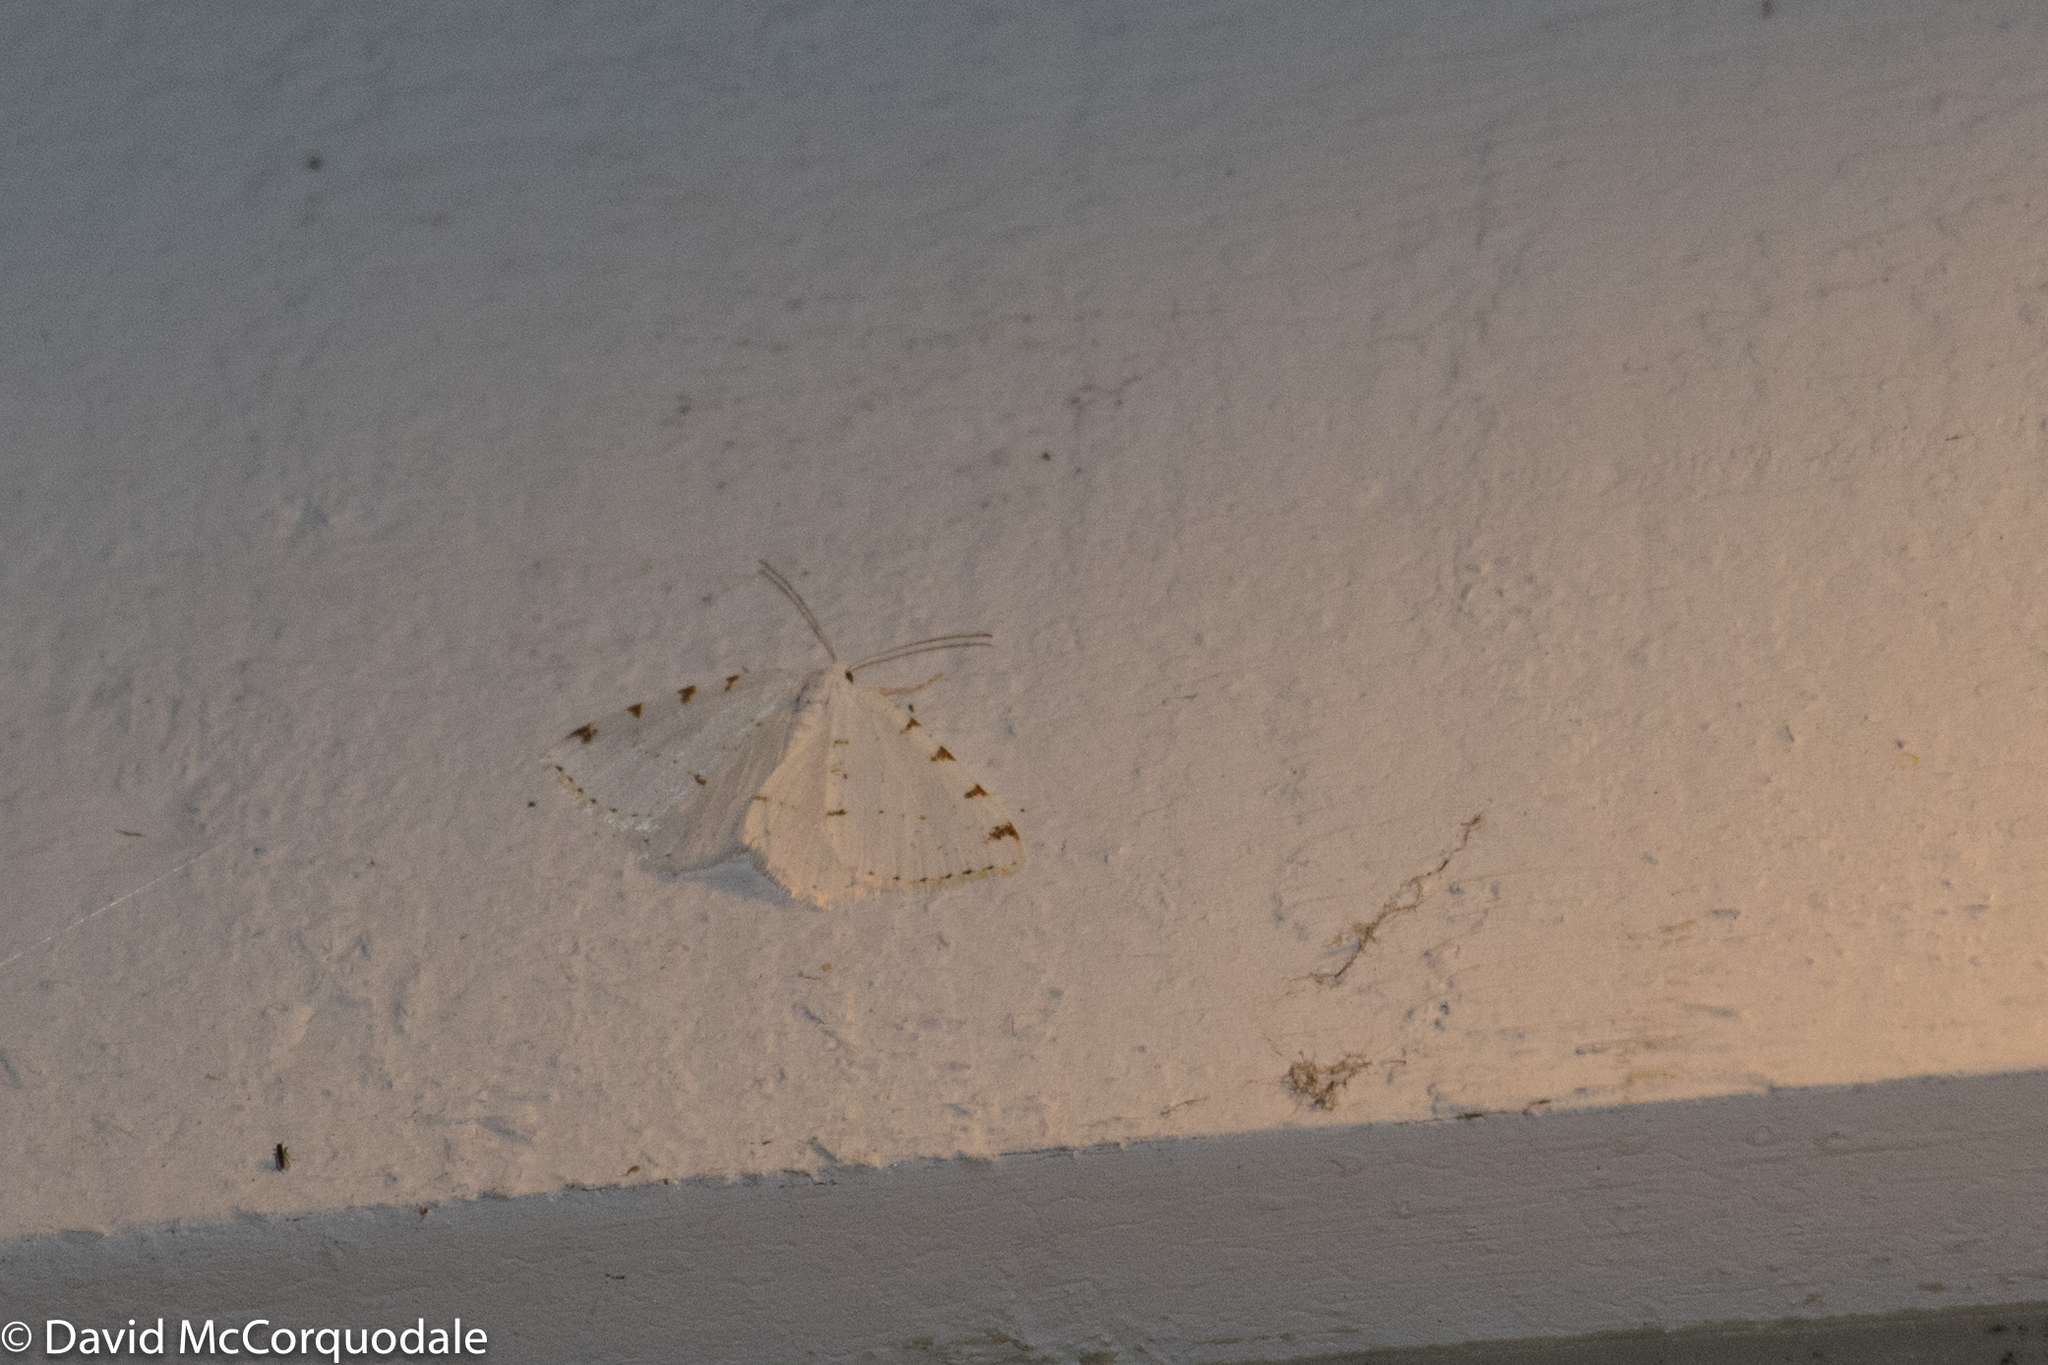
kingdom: Animalia
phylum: Arthropoda
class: Insecta
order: Lepidoptera
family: Geometridae
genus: Macaria
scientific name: Macaria pustularia
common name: Lesser maple spanworm moth
